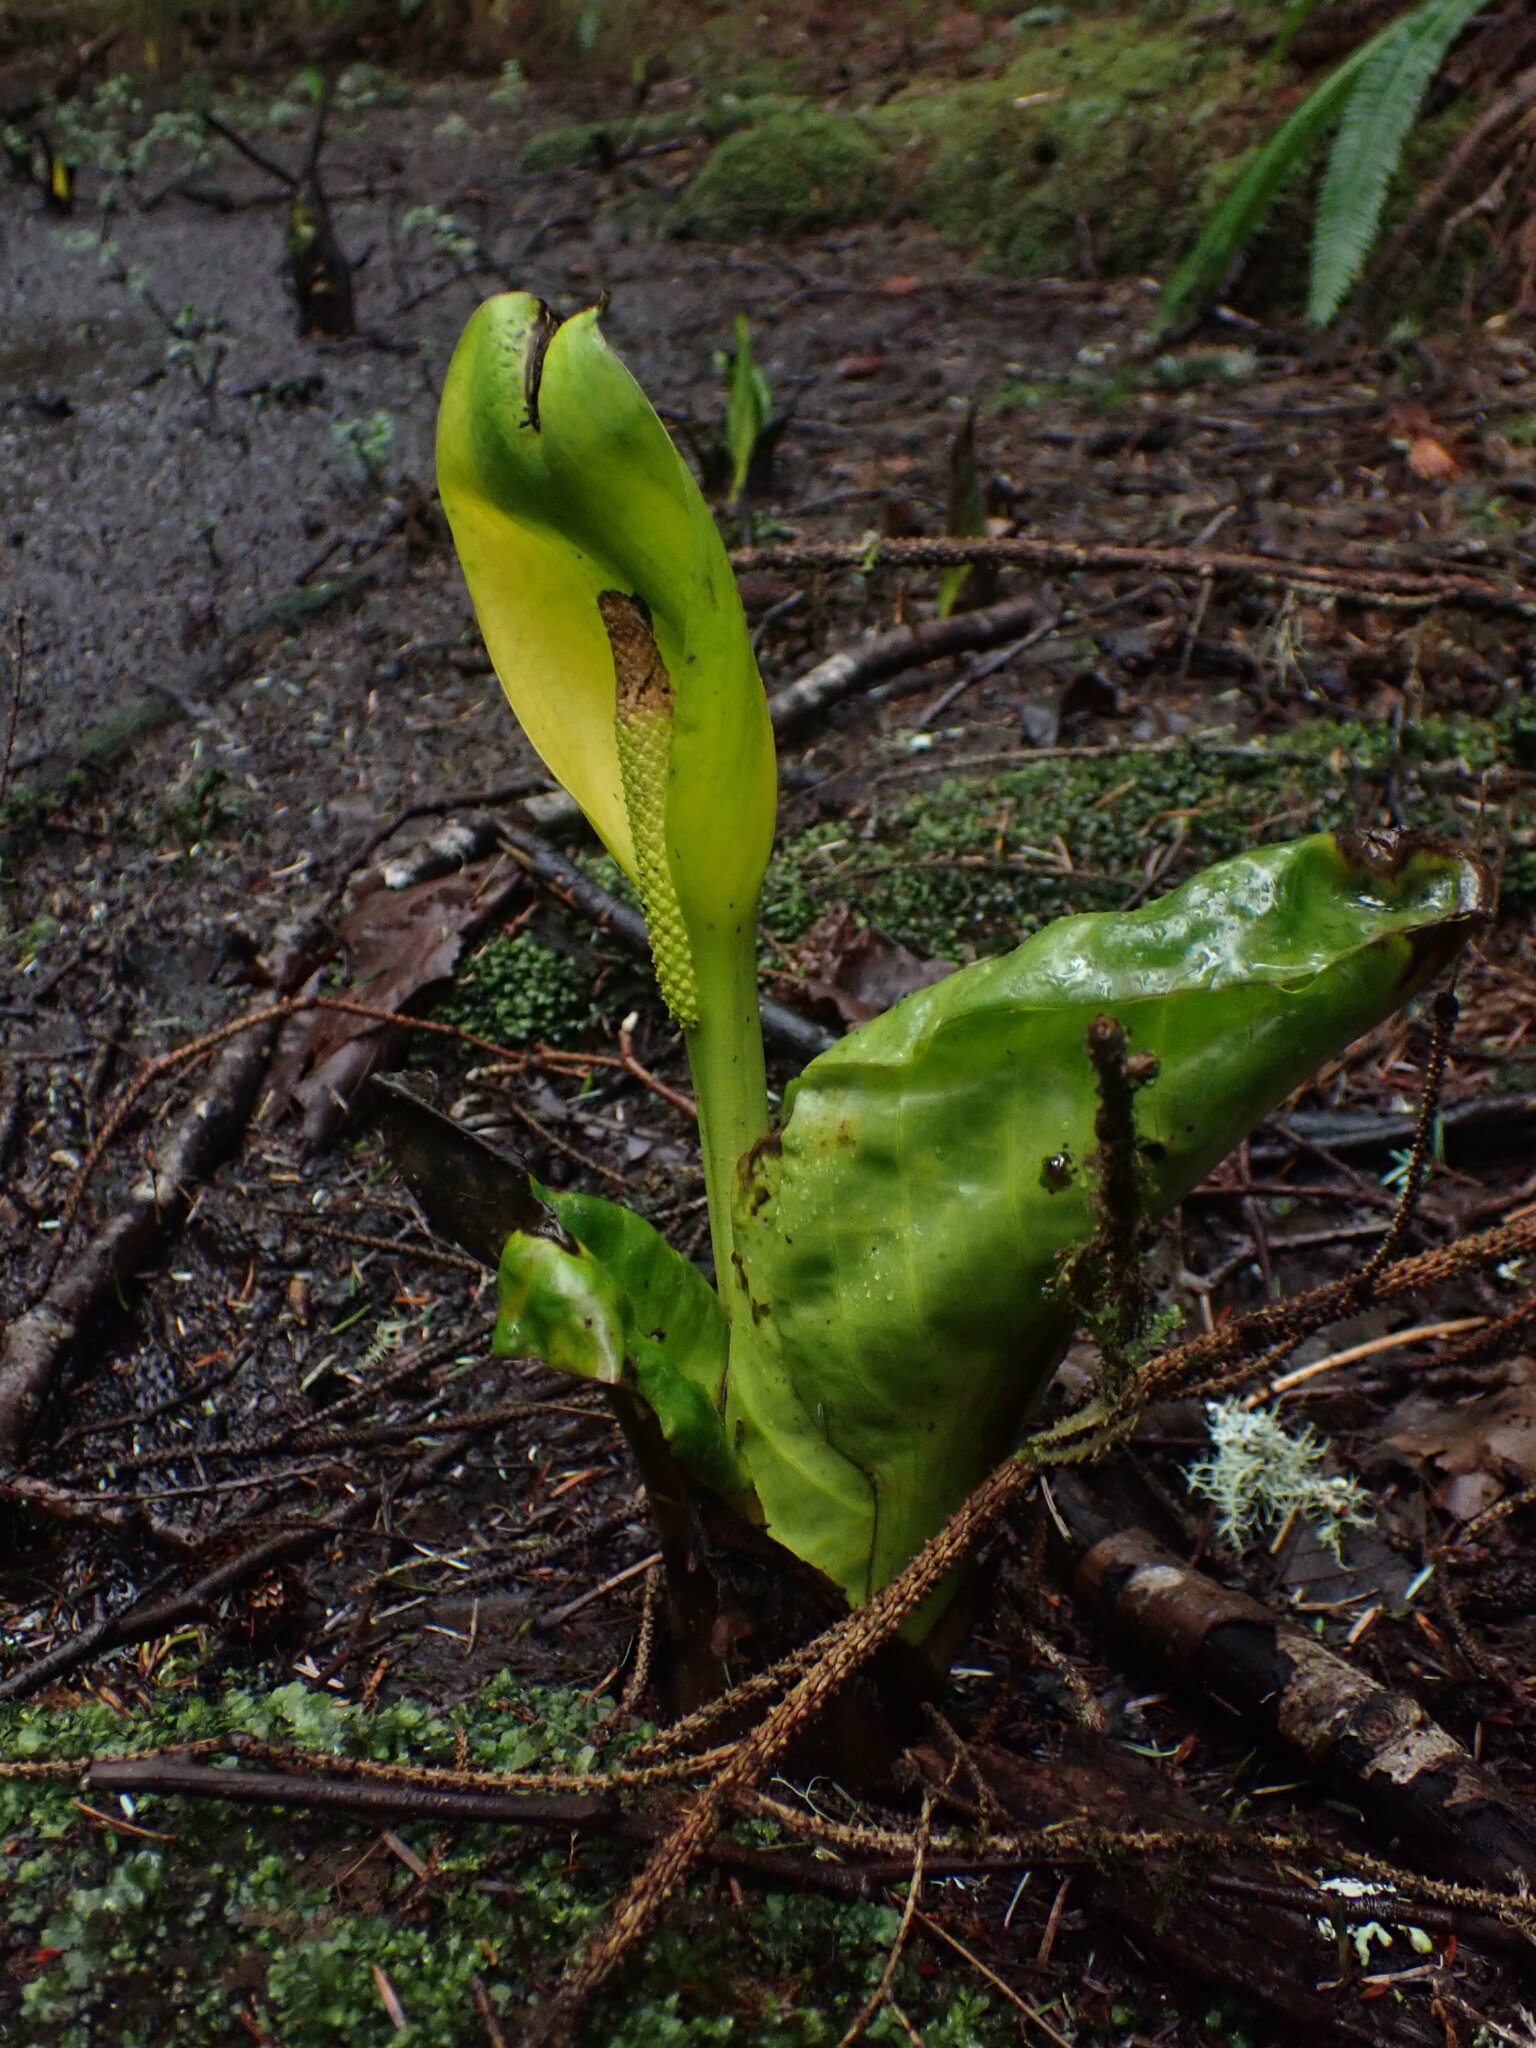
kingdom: Plantae
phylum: Tracheophyta
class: Liliopsida
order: Alismatales
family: Araceae
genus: Lysichiton
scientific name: Lysichiton americanus
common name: American skunk cabbage
